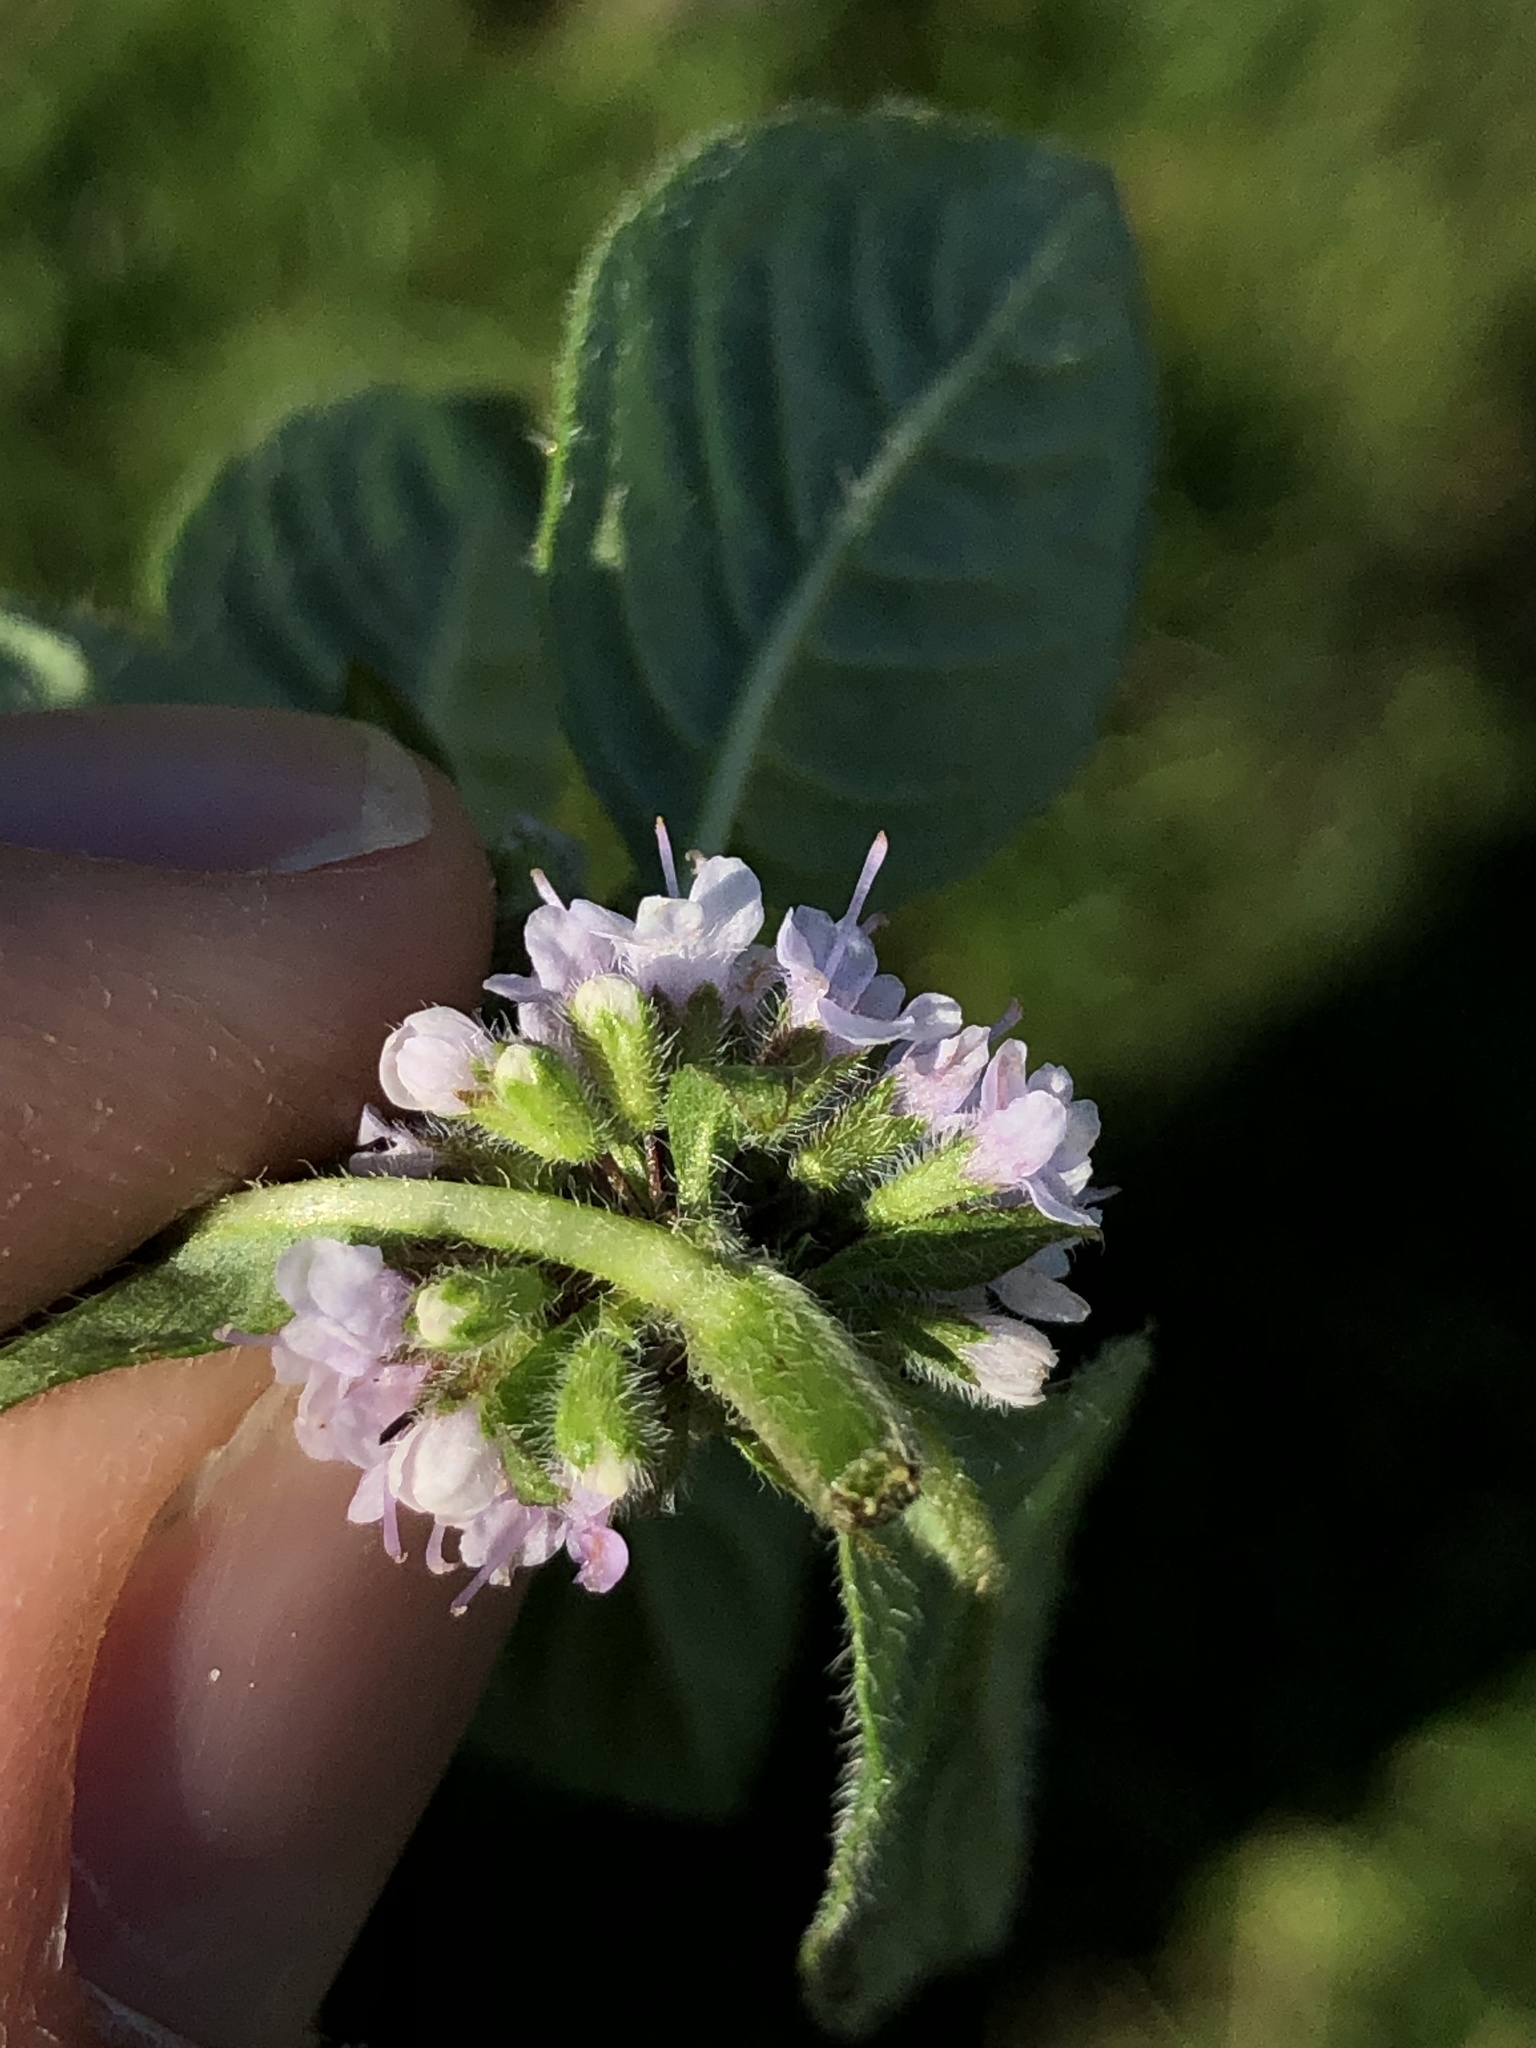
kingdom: Plantae
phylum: Tracheophyta
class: Magnoliopsida
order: Lamiales
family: Lamiaceae
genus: Mentha
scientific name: Mentha arvensis
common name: Corn mint
